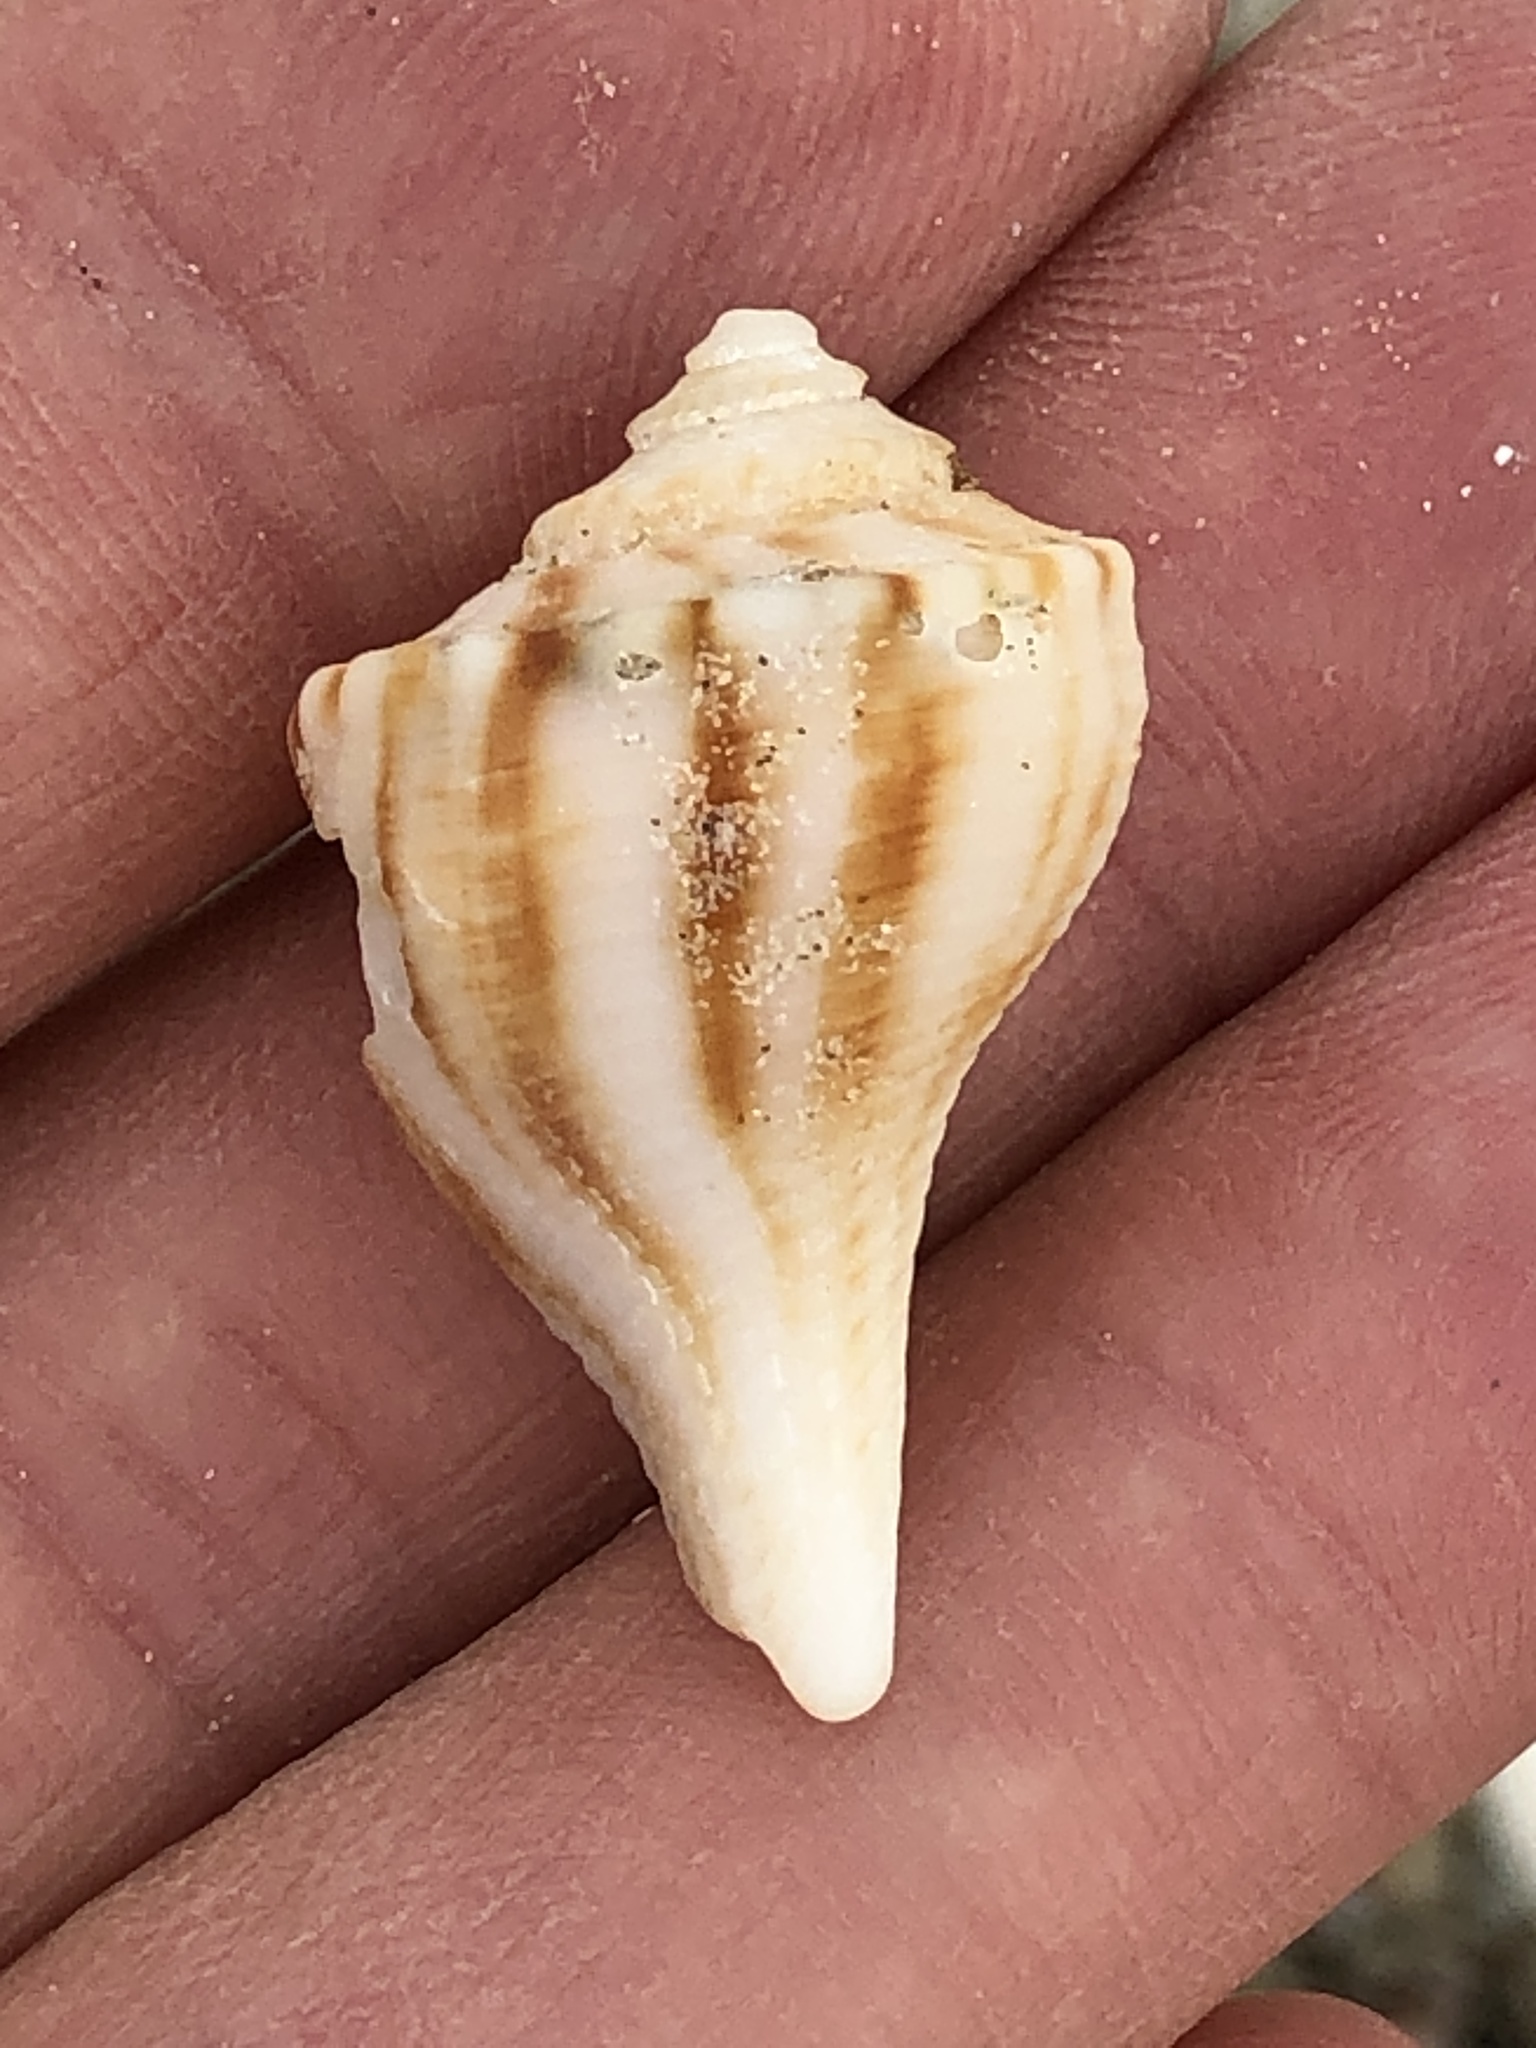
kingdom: Animalia
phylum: Mollusca
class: Gastropoda
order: Neogastropoda
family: Busyconidae
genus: Fulguropsis
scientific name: Fulguropsis plagosa
